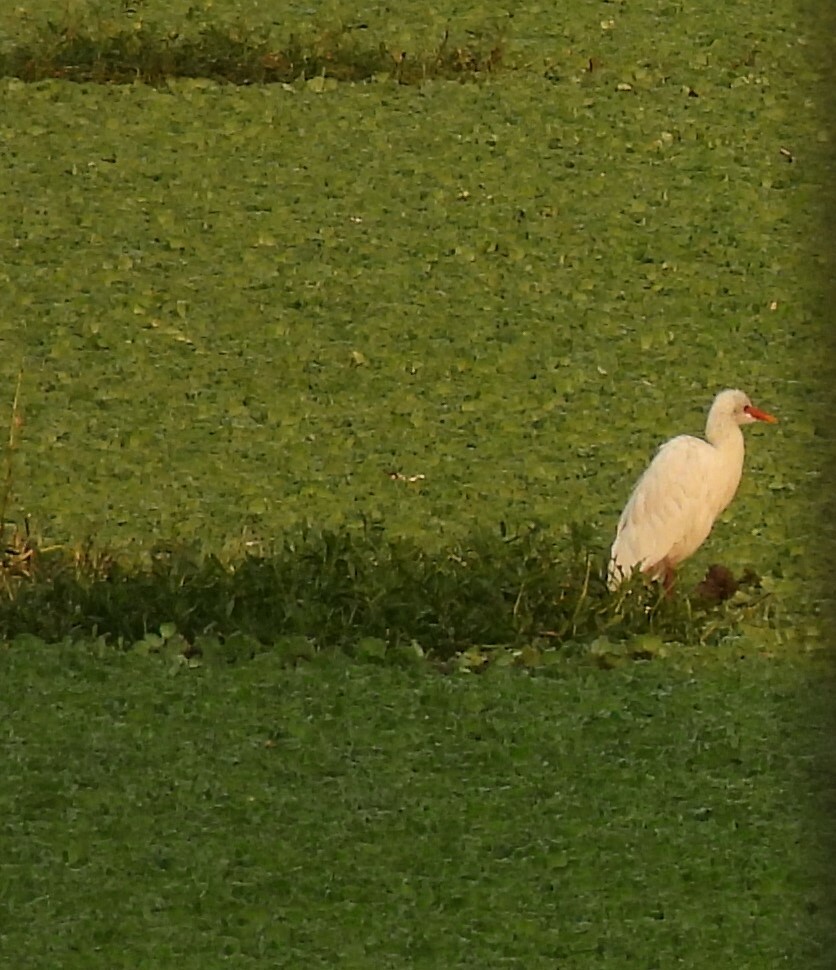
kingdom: Animalia
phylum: Chordata
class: Aves
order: Pelecaniformes
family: Ardeidae
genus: Bubulcus
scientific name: Bubulcus coromandus
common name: Eastern cattle egret
